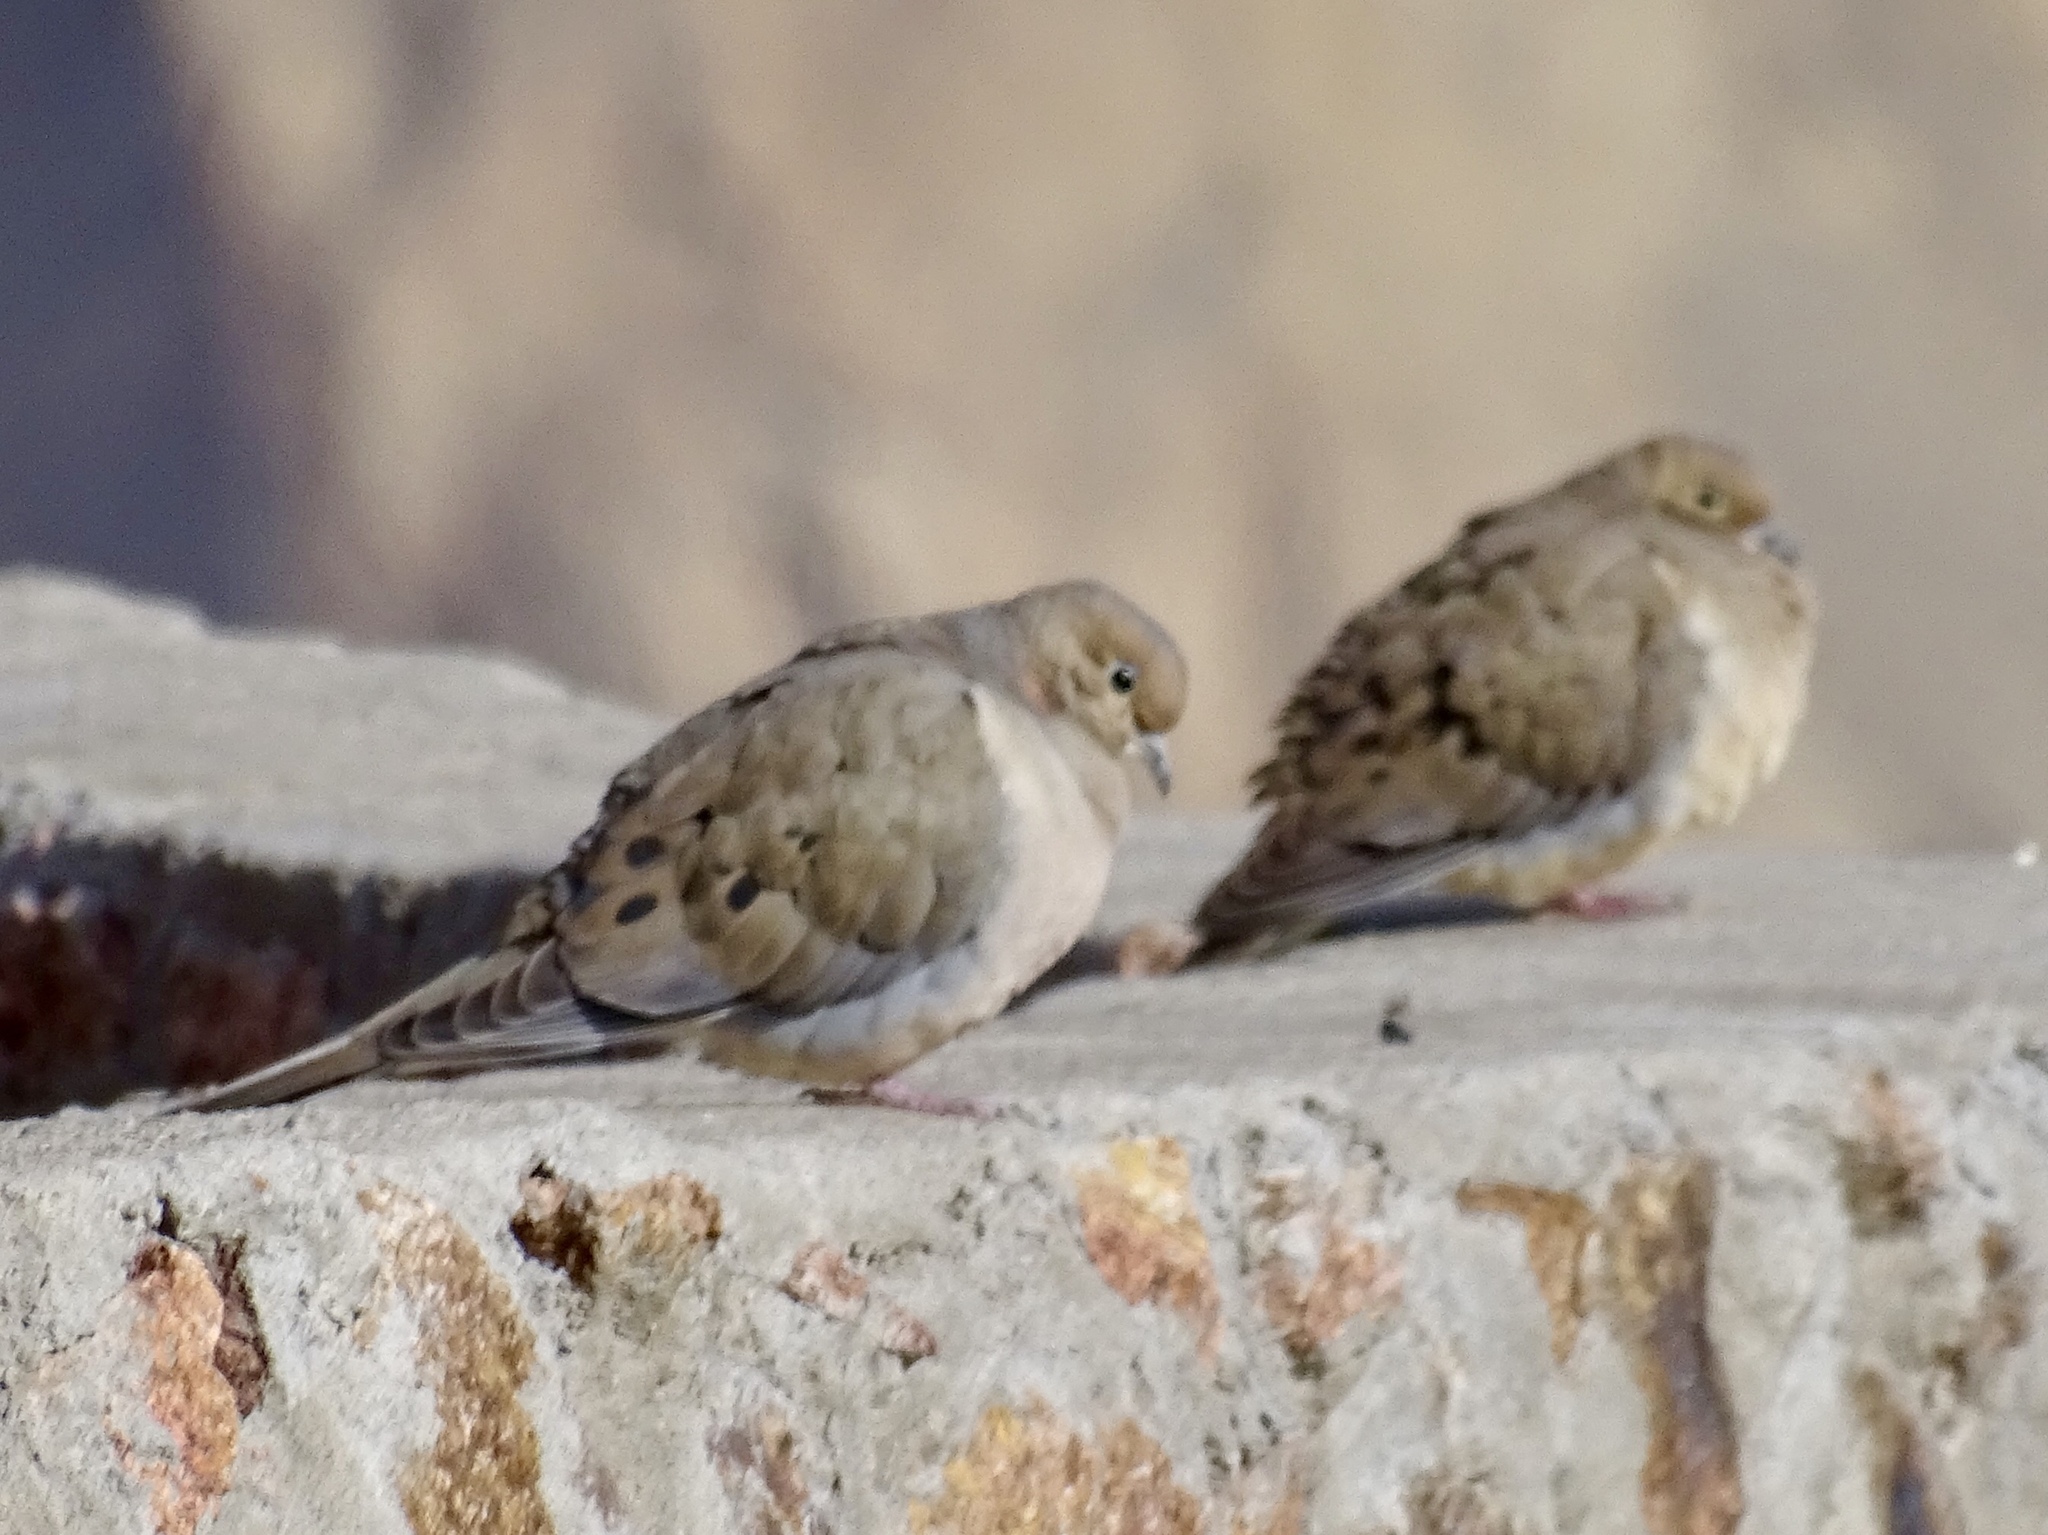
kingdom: Animalia
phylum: Chordata
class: Aves
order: Columbiformes
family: Columbidae
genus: Zenaida
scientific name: Zenaida macroura
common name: Mourning dove
